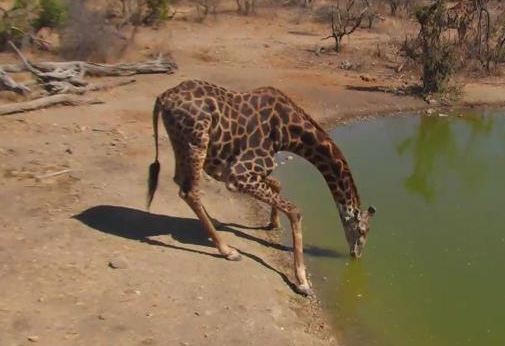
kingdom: Animalia
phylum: Chordata
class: Mammalia
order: Artiodactyla
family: Giraffidae
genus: Giraffa
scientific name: Giraffa giraffa
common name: Southern giraffe
